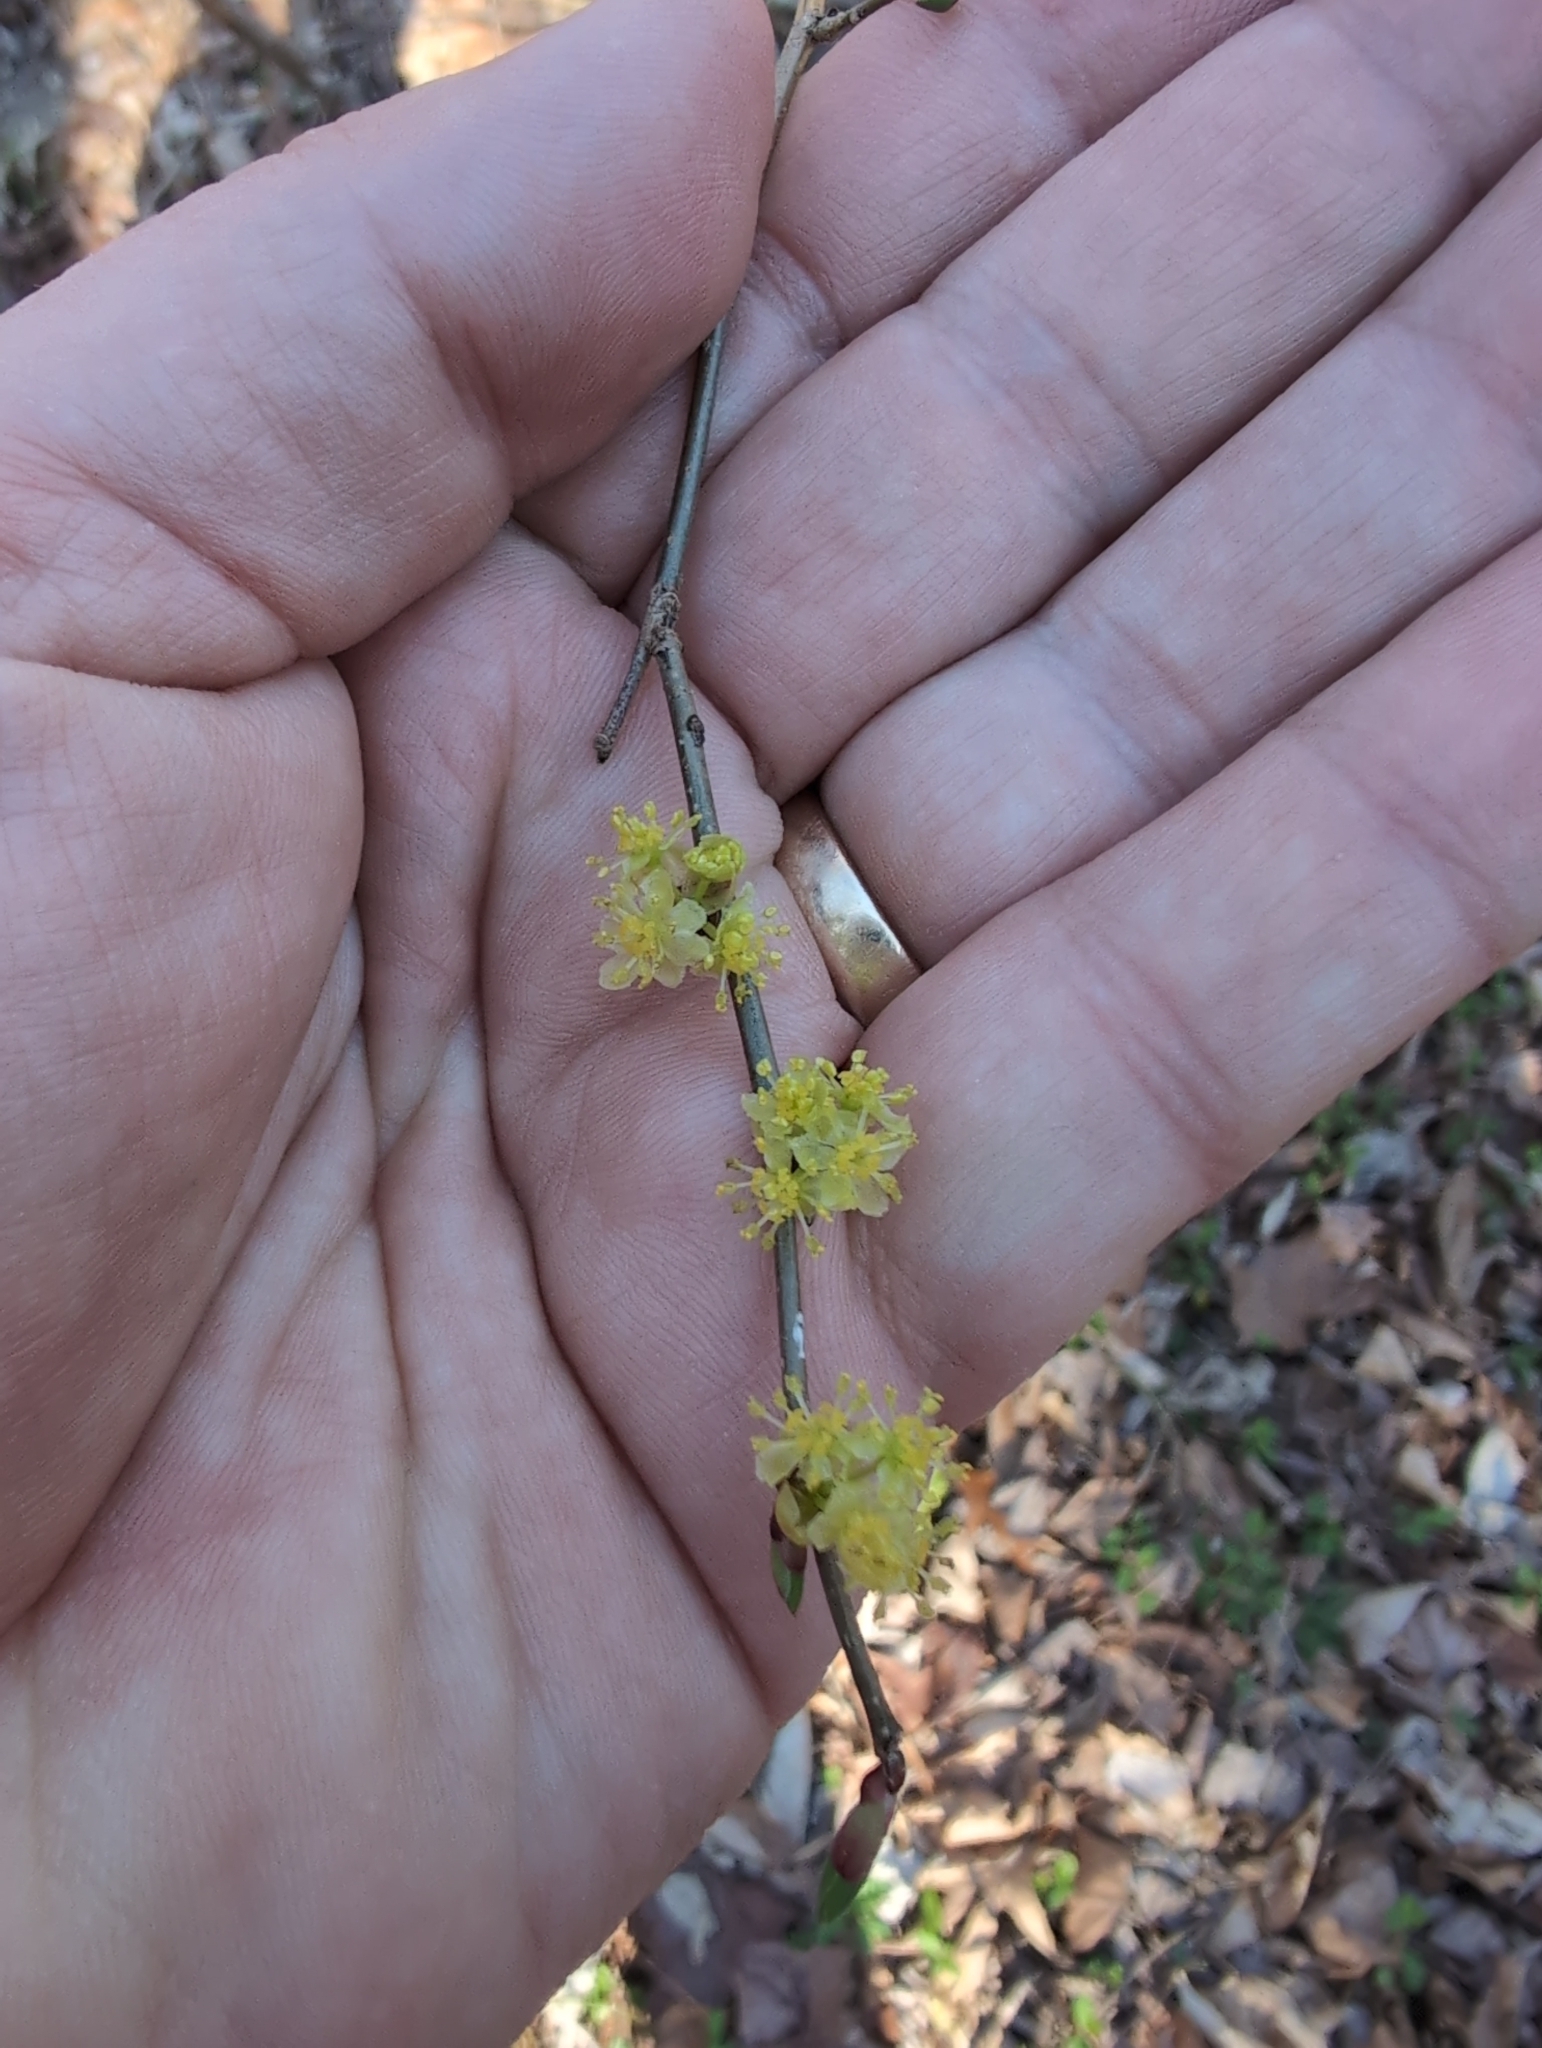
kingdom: Plantae
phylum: Tracheophyta
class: Magnoliopsida
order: Laurales
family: Lauraceae
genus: Lindera
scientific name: Lindera benzoin
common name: Spicebush
